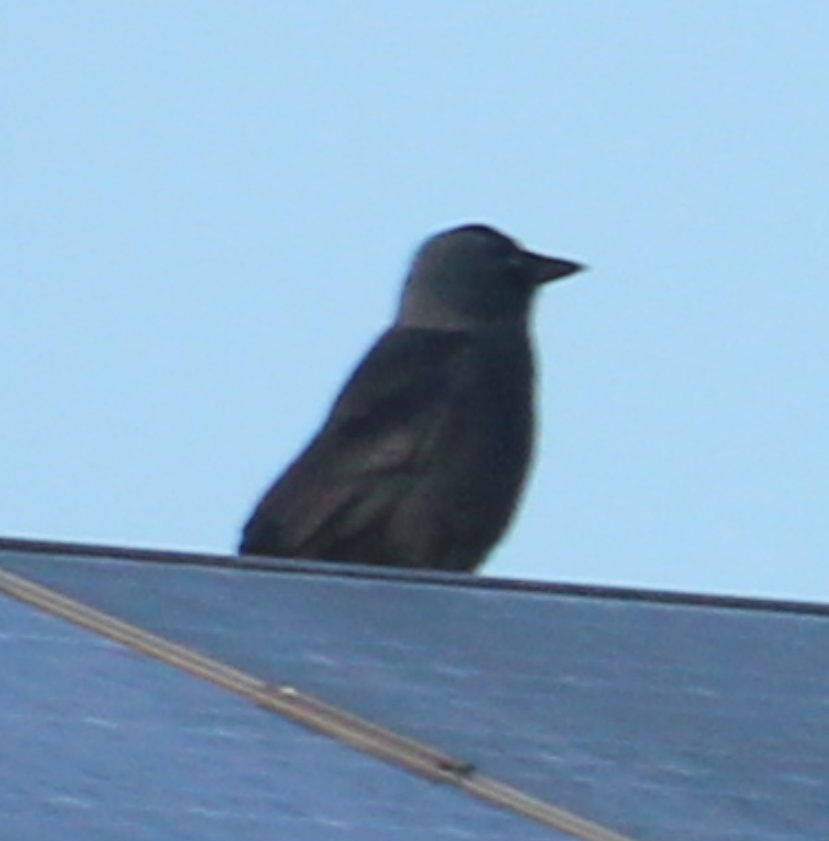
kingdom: Animalia
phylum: Chordata
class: Aves
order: Passeriformes
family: Corvidae
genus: Coloeus
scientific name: Coloeus monedula
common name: Western jackdaw
